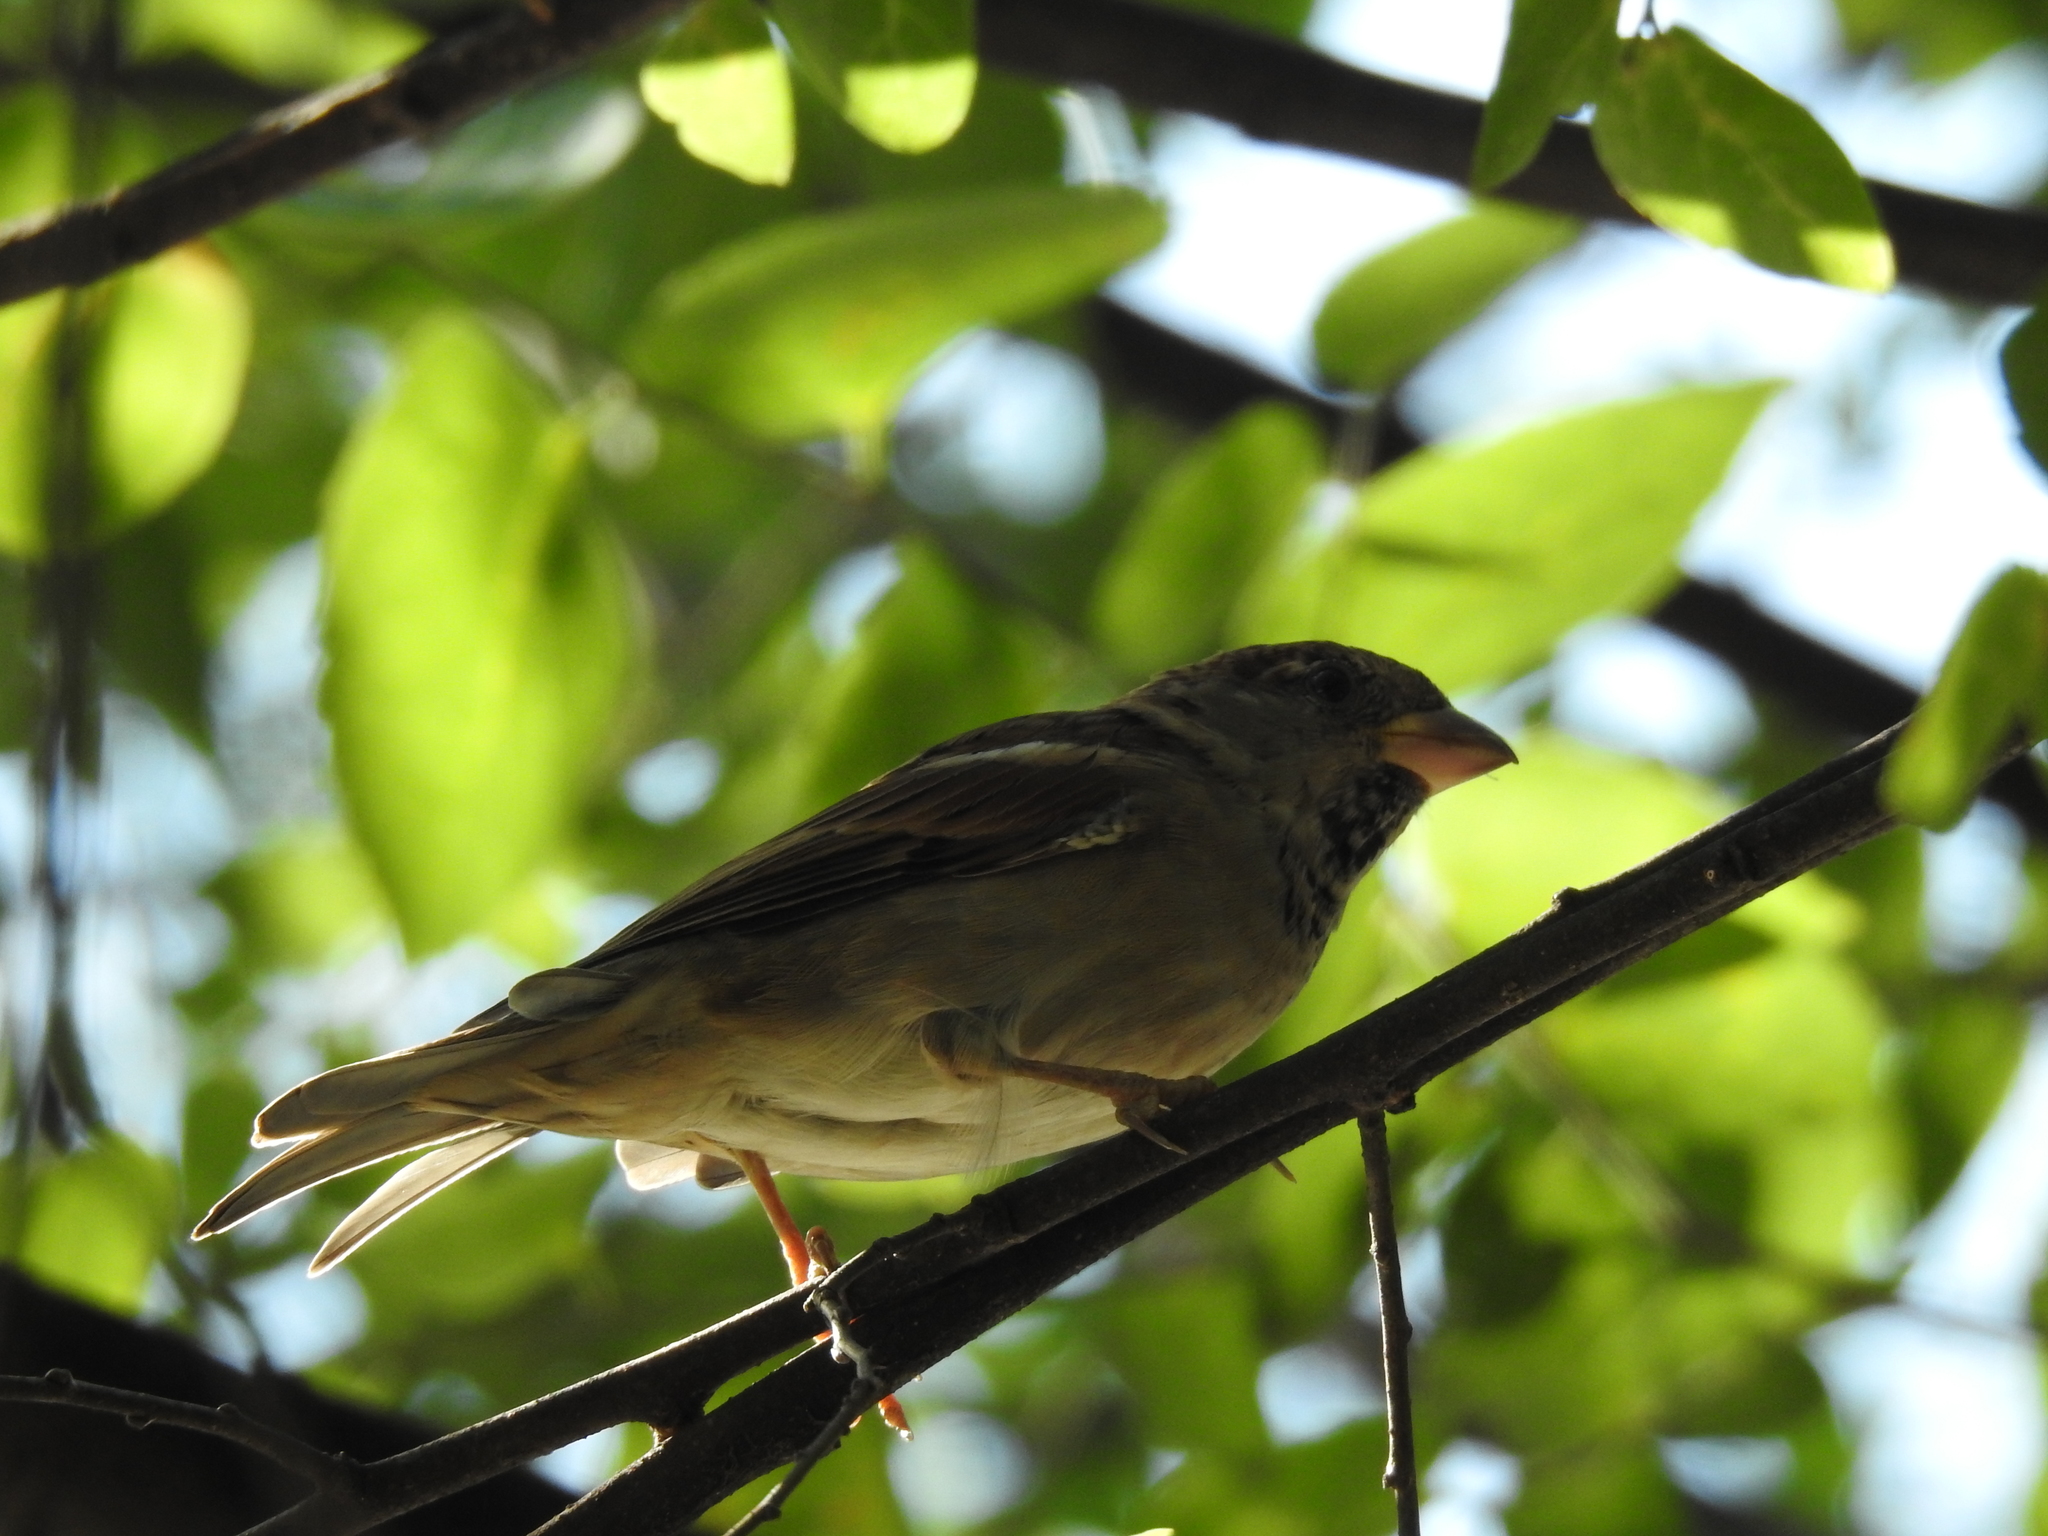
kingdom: Animalia
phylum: Chordata
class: Aves
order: Passeriformes
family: Passeridae
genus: Passer
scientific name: Passer domesticus
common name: House sparrow
